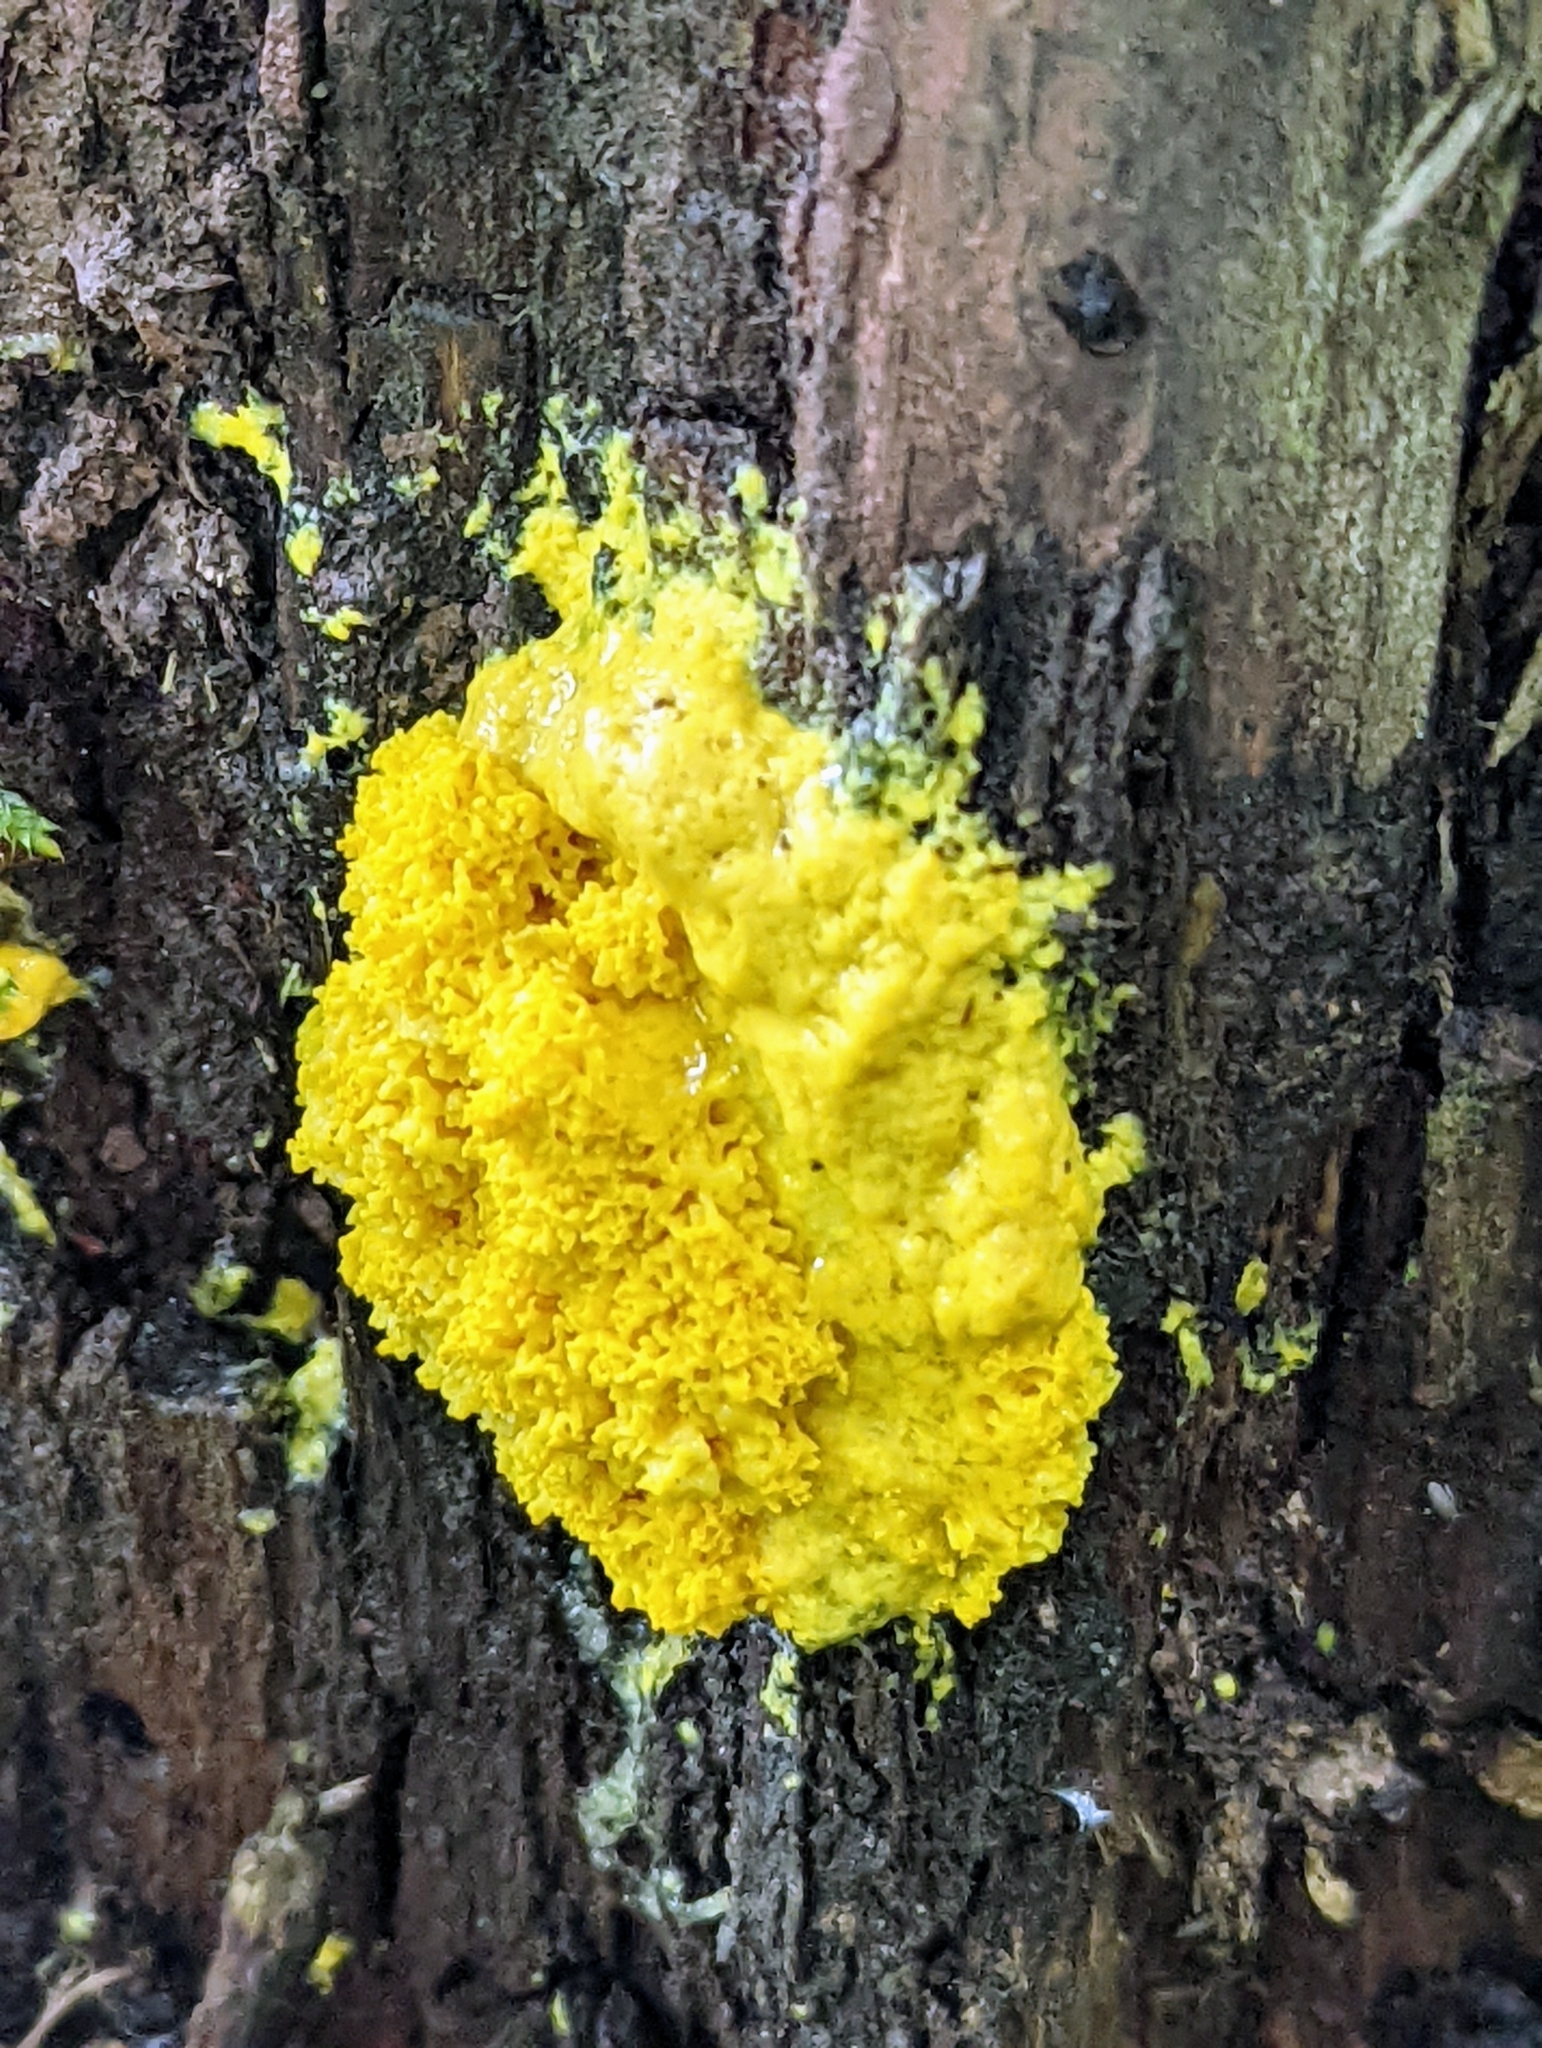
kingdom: Protozoa
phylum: Mycetozoa
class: Myxomycetes
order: Physarales
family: Physaraceae
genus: Fuligo
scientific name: Fuligo septica
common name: Dog vomit slime mold
